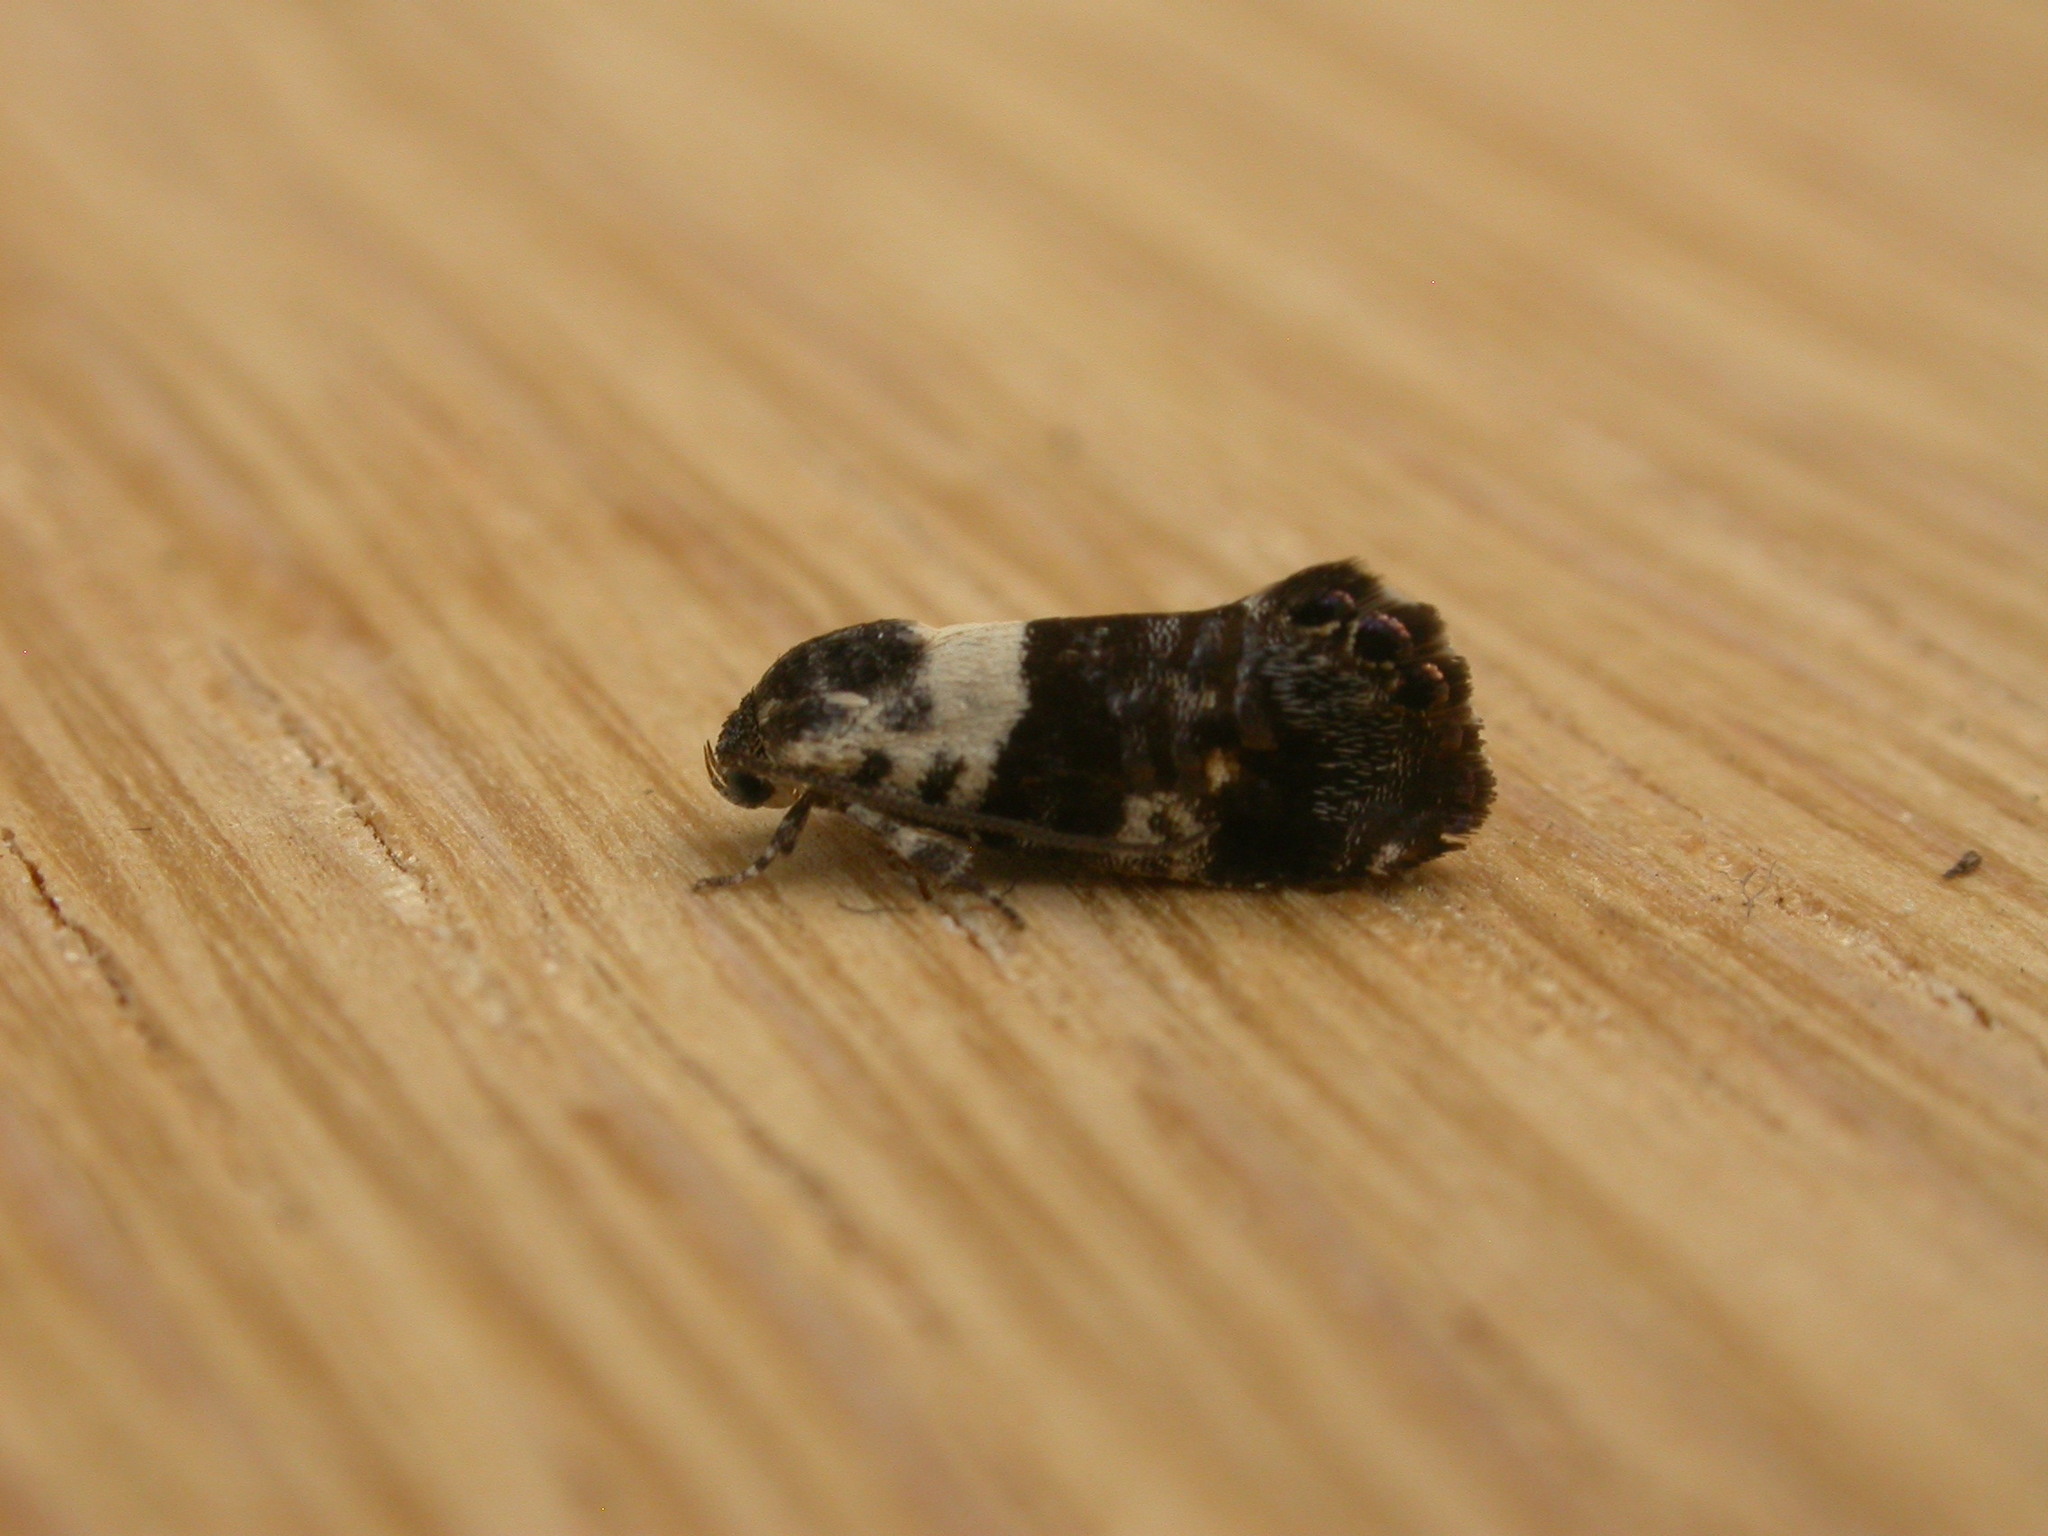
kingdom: Animalia
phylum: Arthropoda
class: Insecta
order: Lepidoptera
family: Depressariidae
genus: Eupselia
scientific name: Eupselia aristonica
